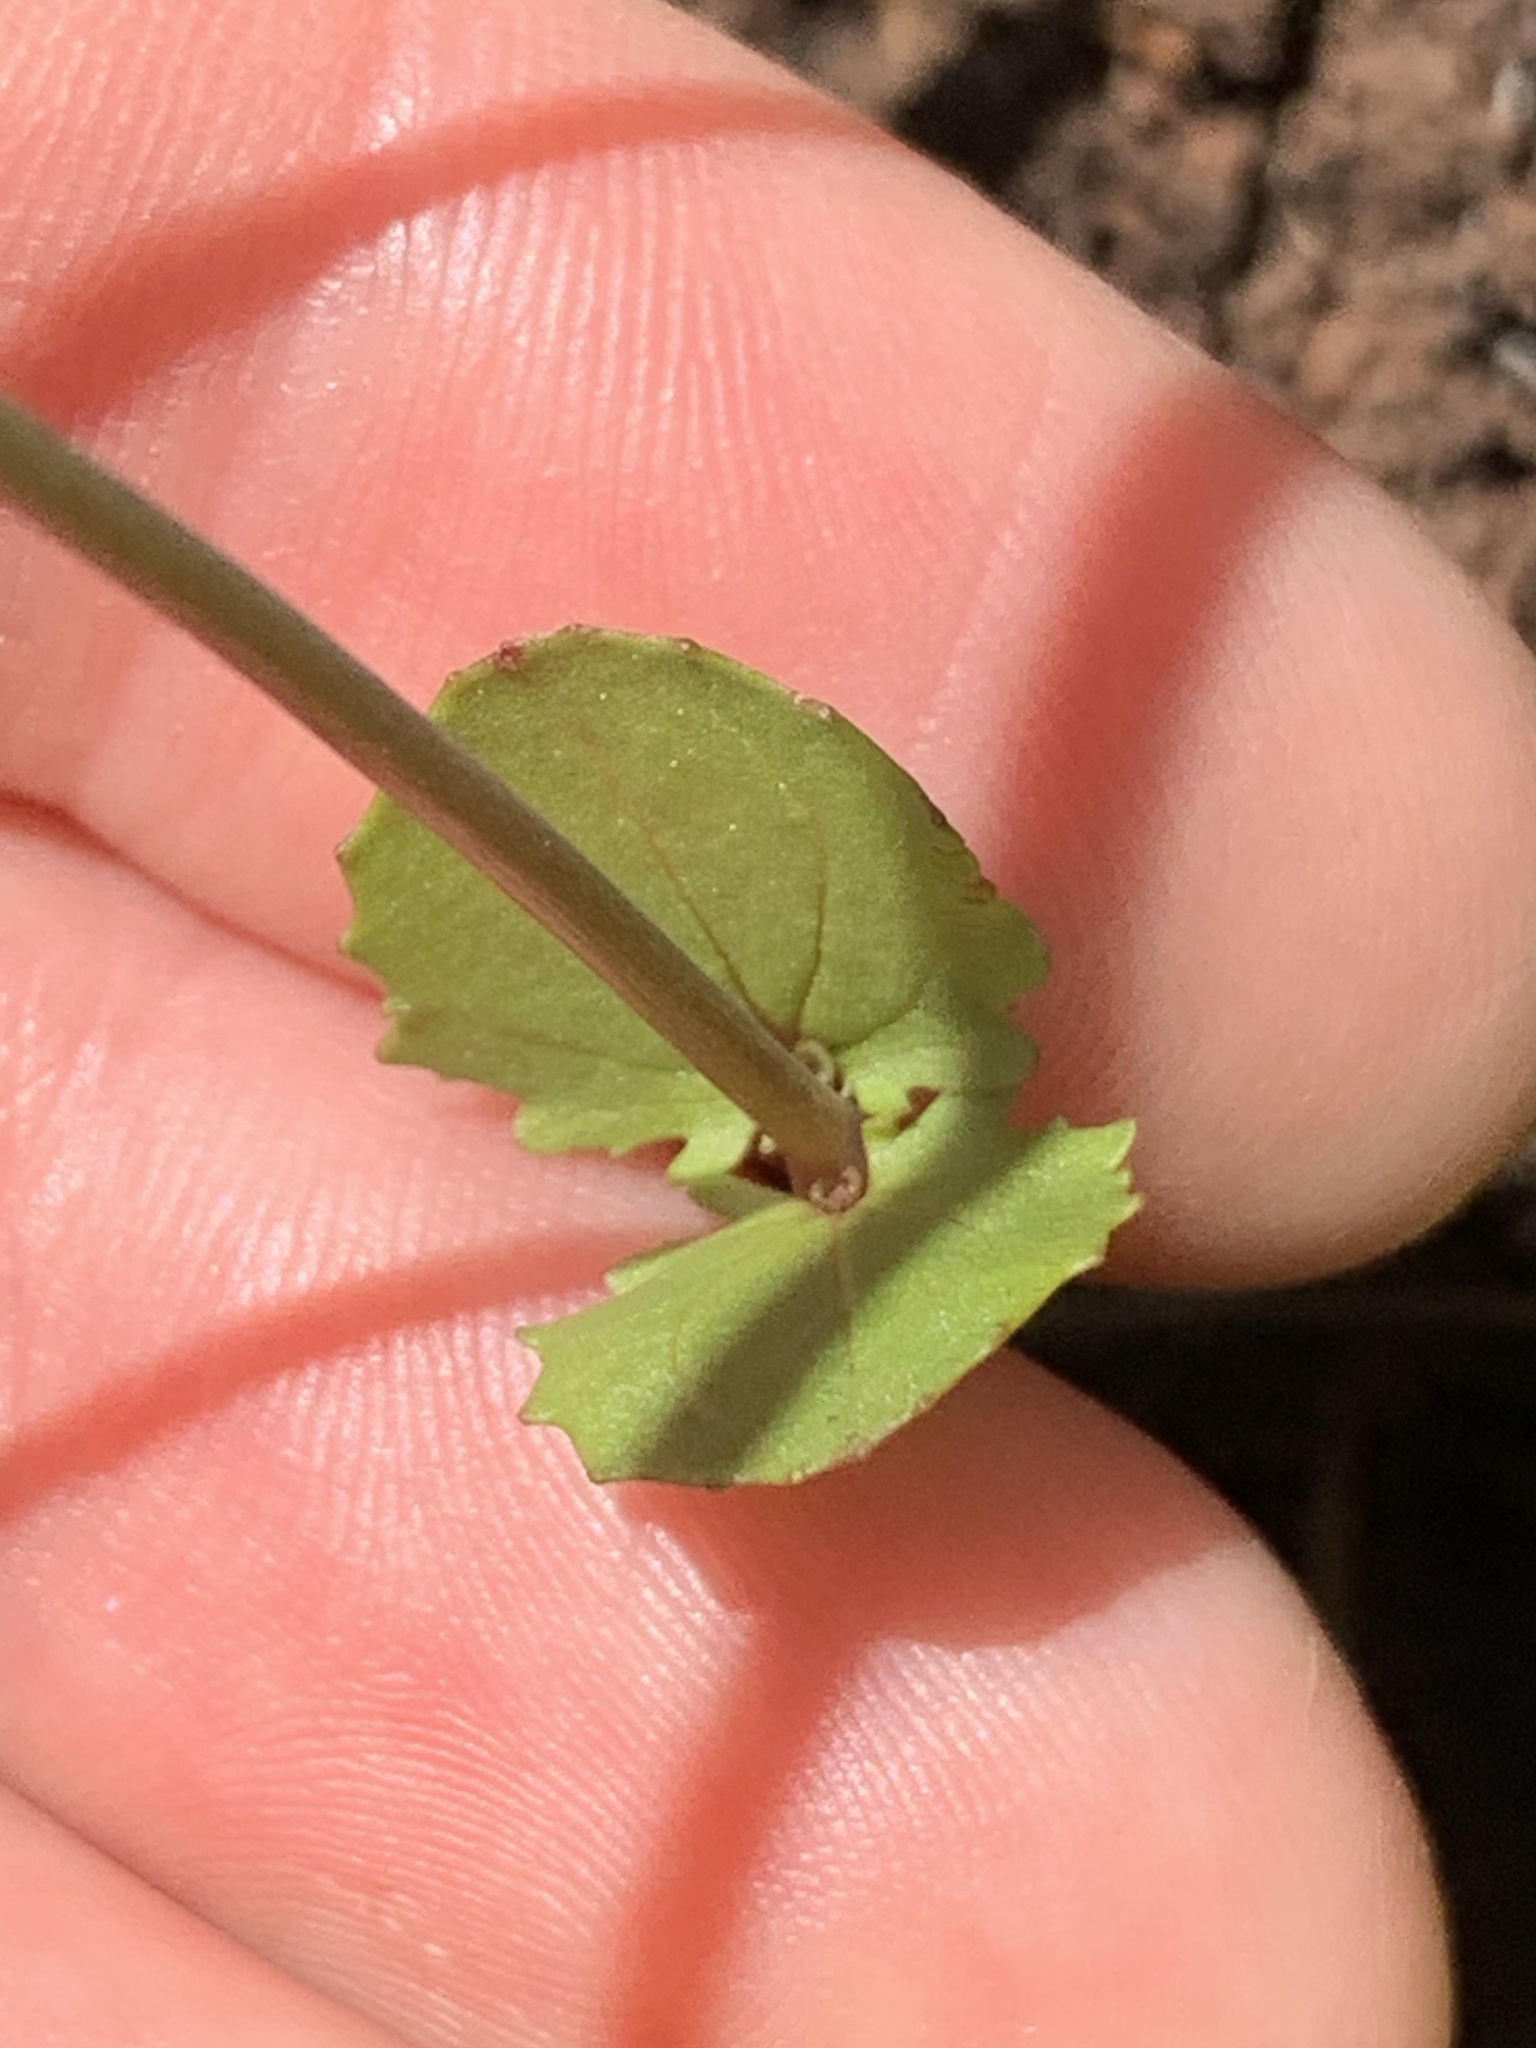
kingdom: Plantae
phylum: Tracheophyta
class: Magnoliopsida
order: Lamiales
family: Phrymaceae
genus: Erythranthe
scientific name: Erythranthe microphylla
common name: Bentham's monkeyflower
